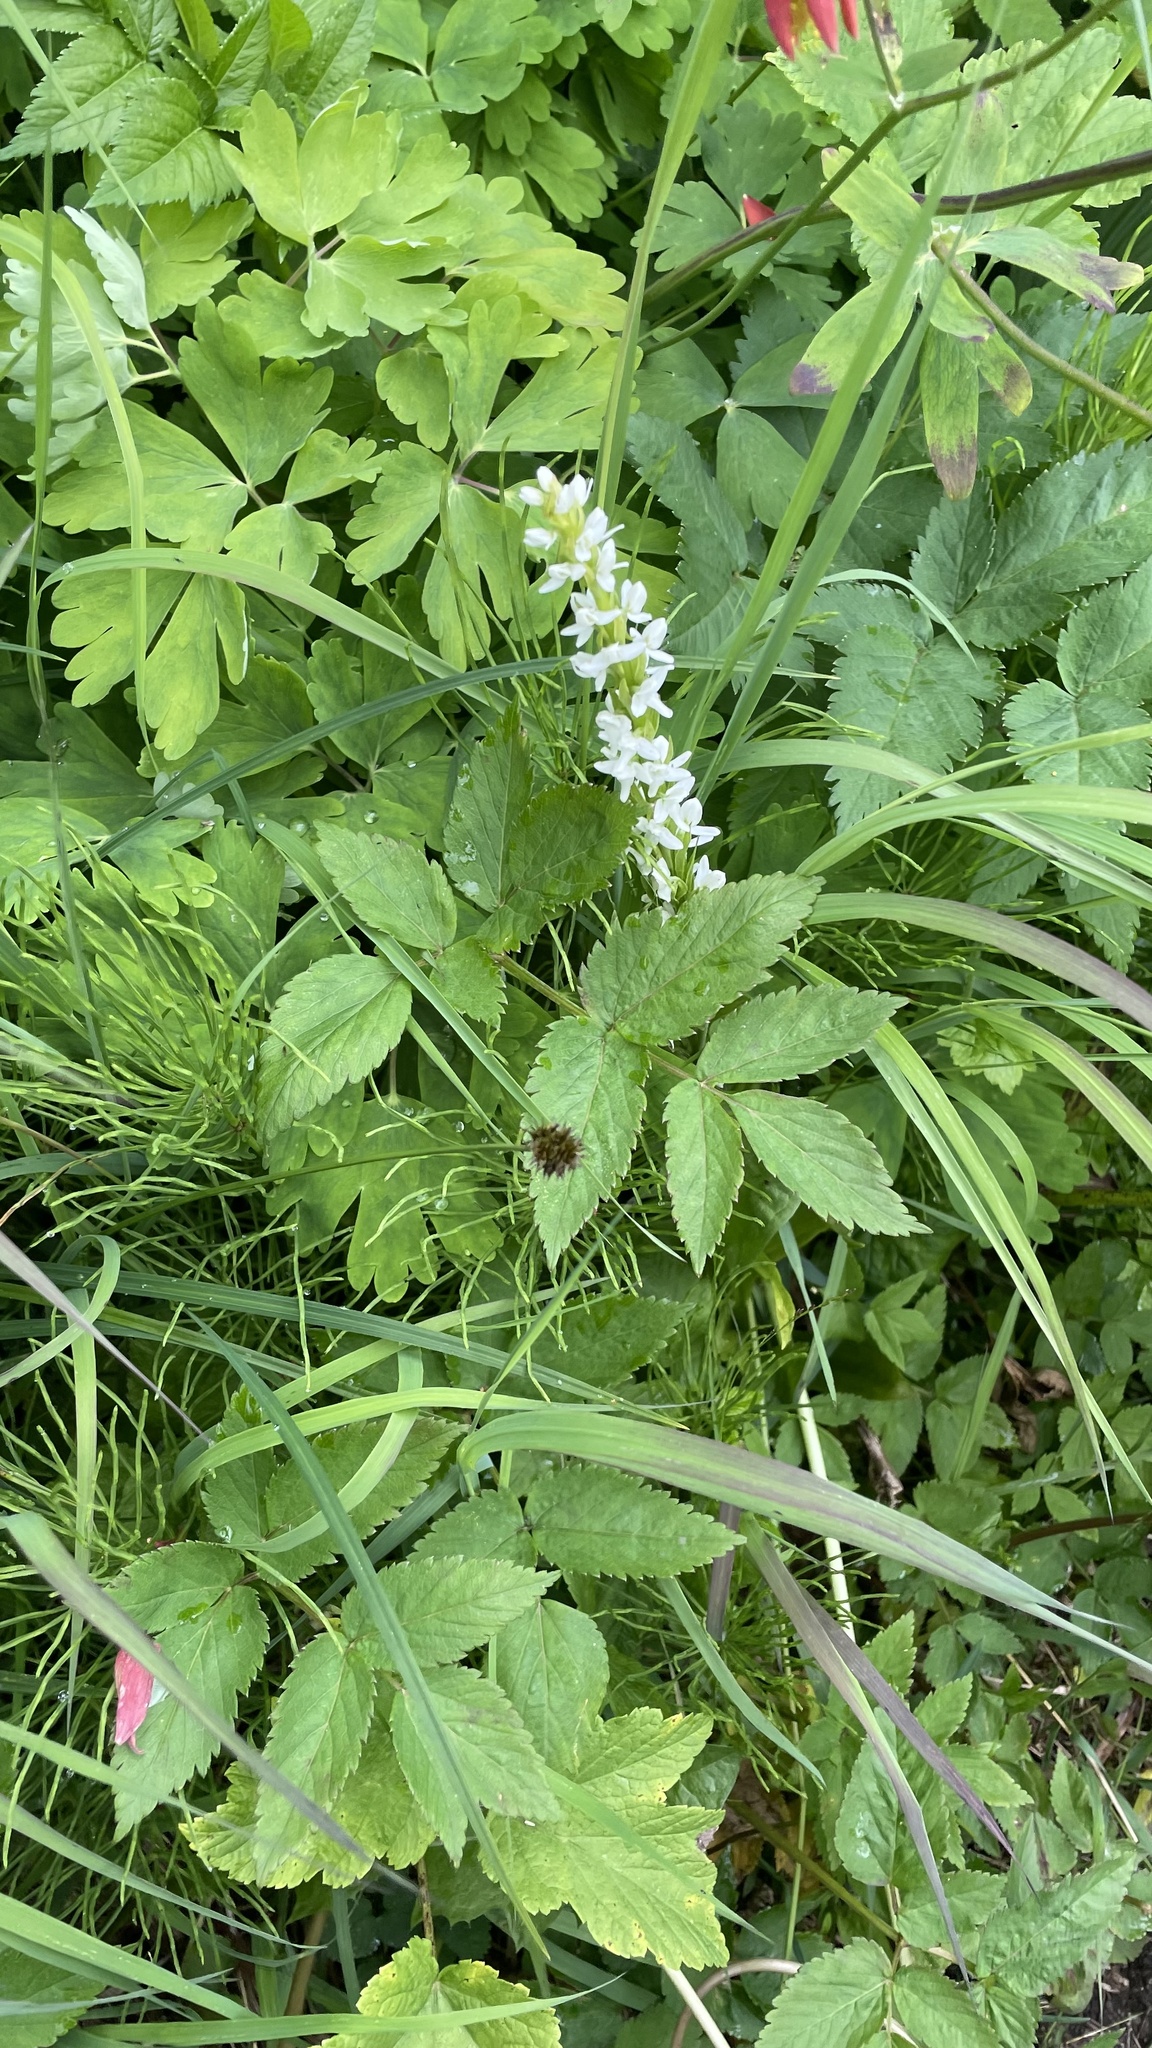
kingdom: Plantae
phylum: Tracheophyta
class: Liliopsida
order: Asparagales
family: Orchidaceae
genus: Platanthera
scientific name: Platanthera dilatata
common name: Bog candles
